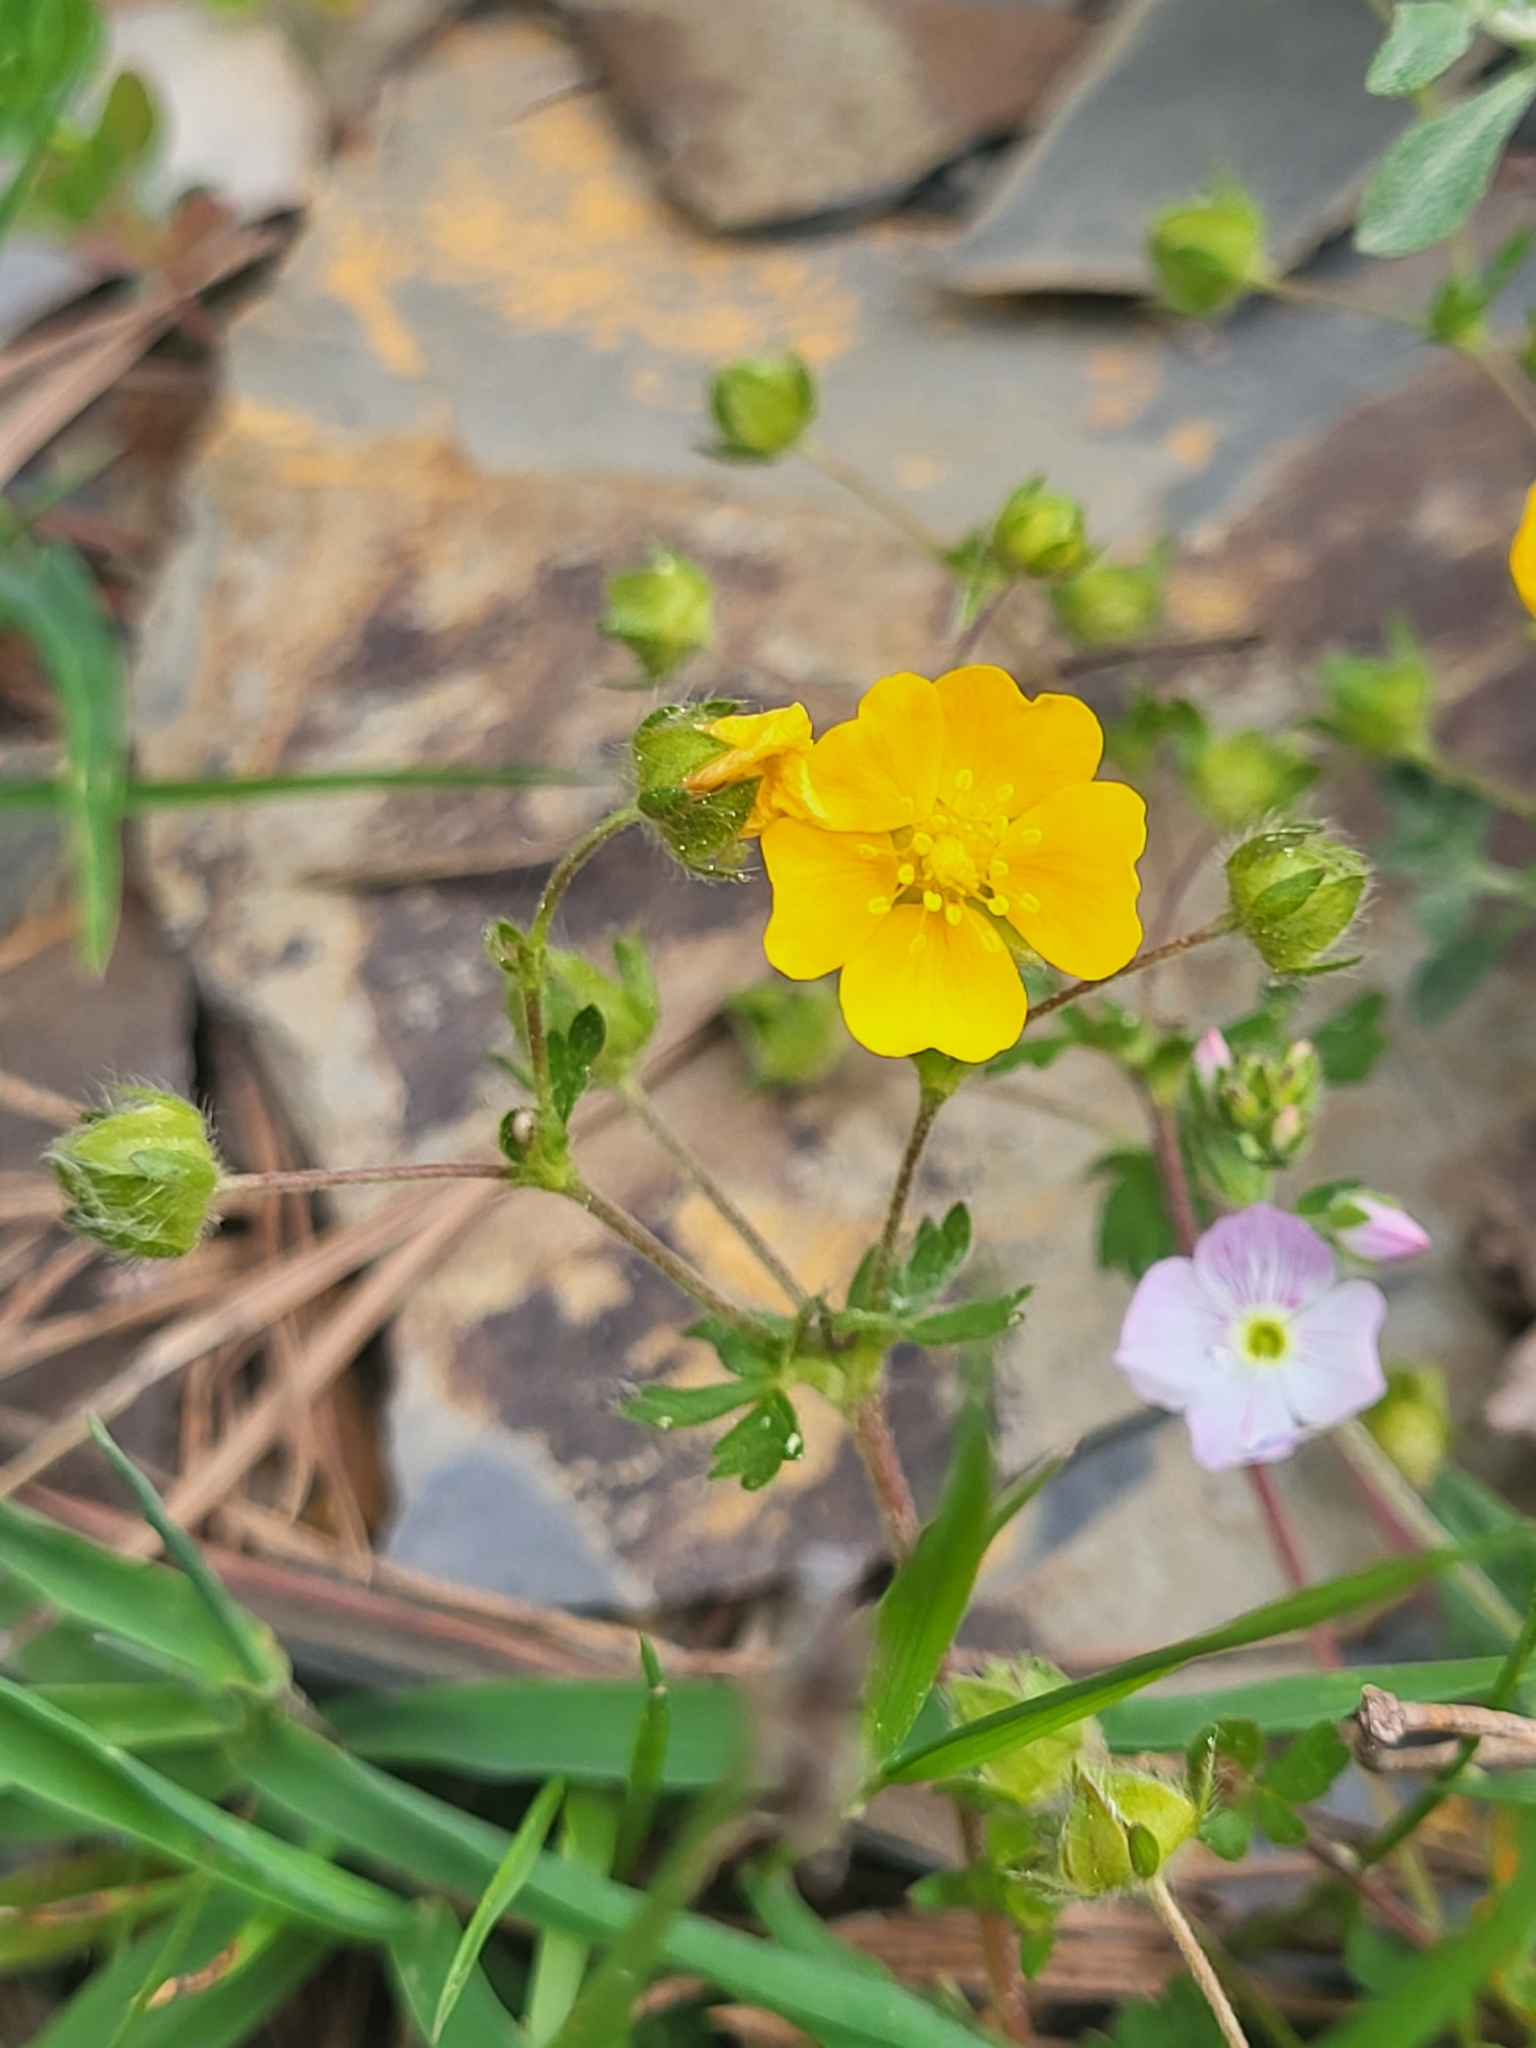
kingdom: Plantae
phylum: Tracheophyta
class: Magnoliopsida
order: Rosales
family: Rosaceae
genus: Potentilla
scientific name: Potentilla crantzii
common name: Alpine cinquefoil
